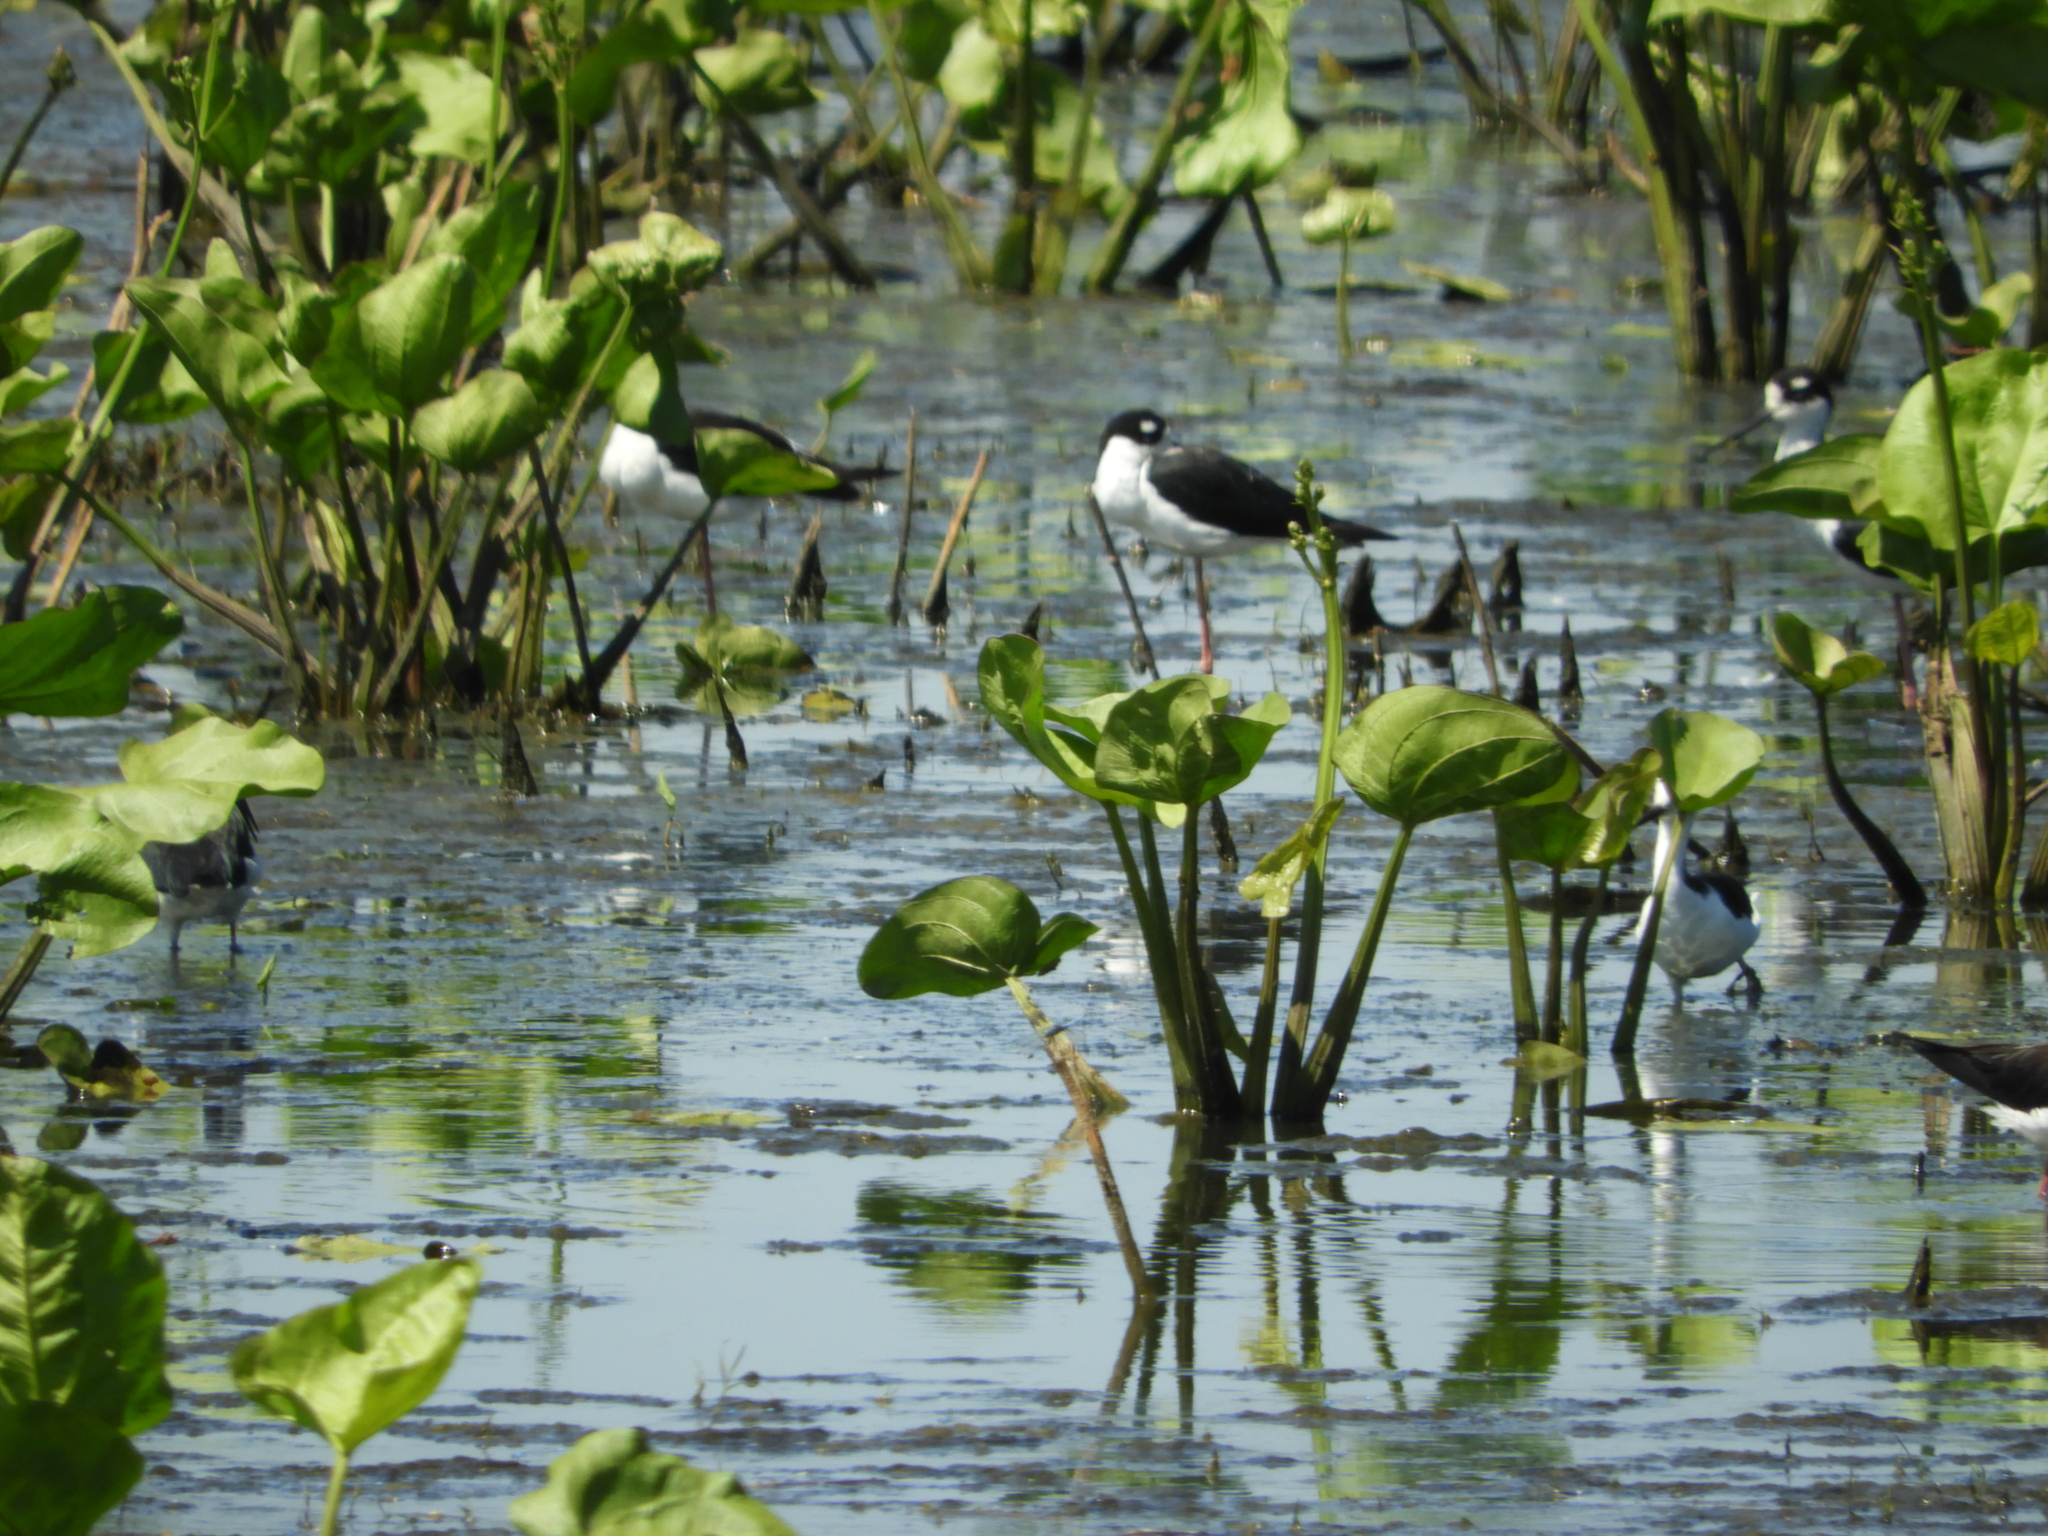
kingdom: Animalia
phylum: Chordata
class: Aves
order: Charadriiformes
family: Recurvirostridae
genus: Himantopus
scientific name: Himantopus mexicanus
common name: Black-necked stilt
